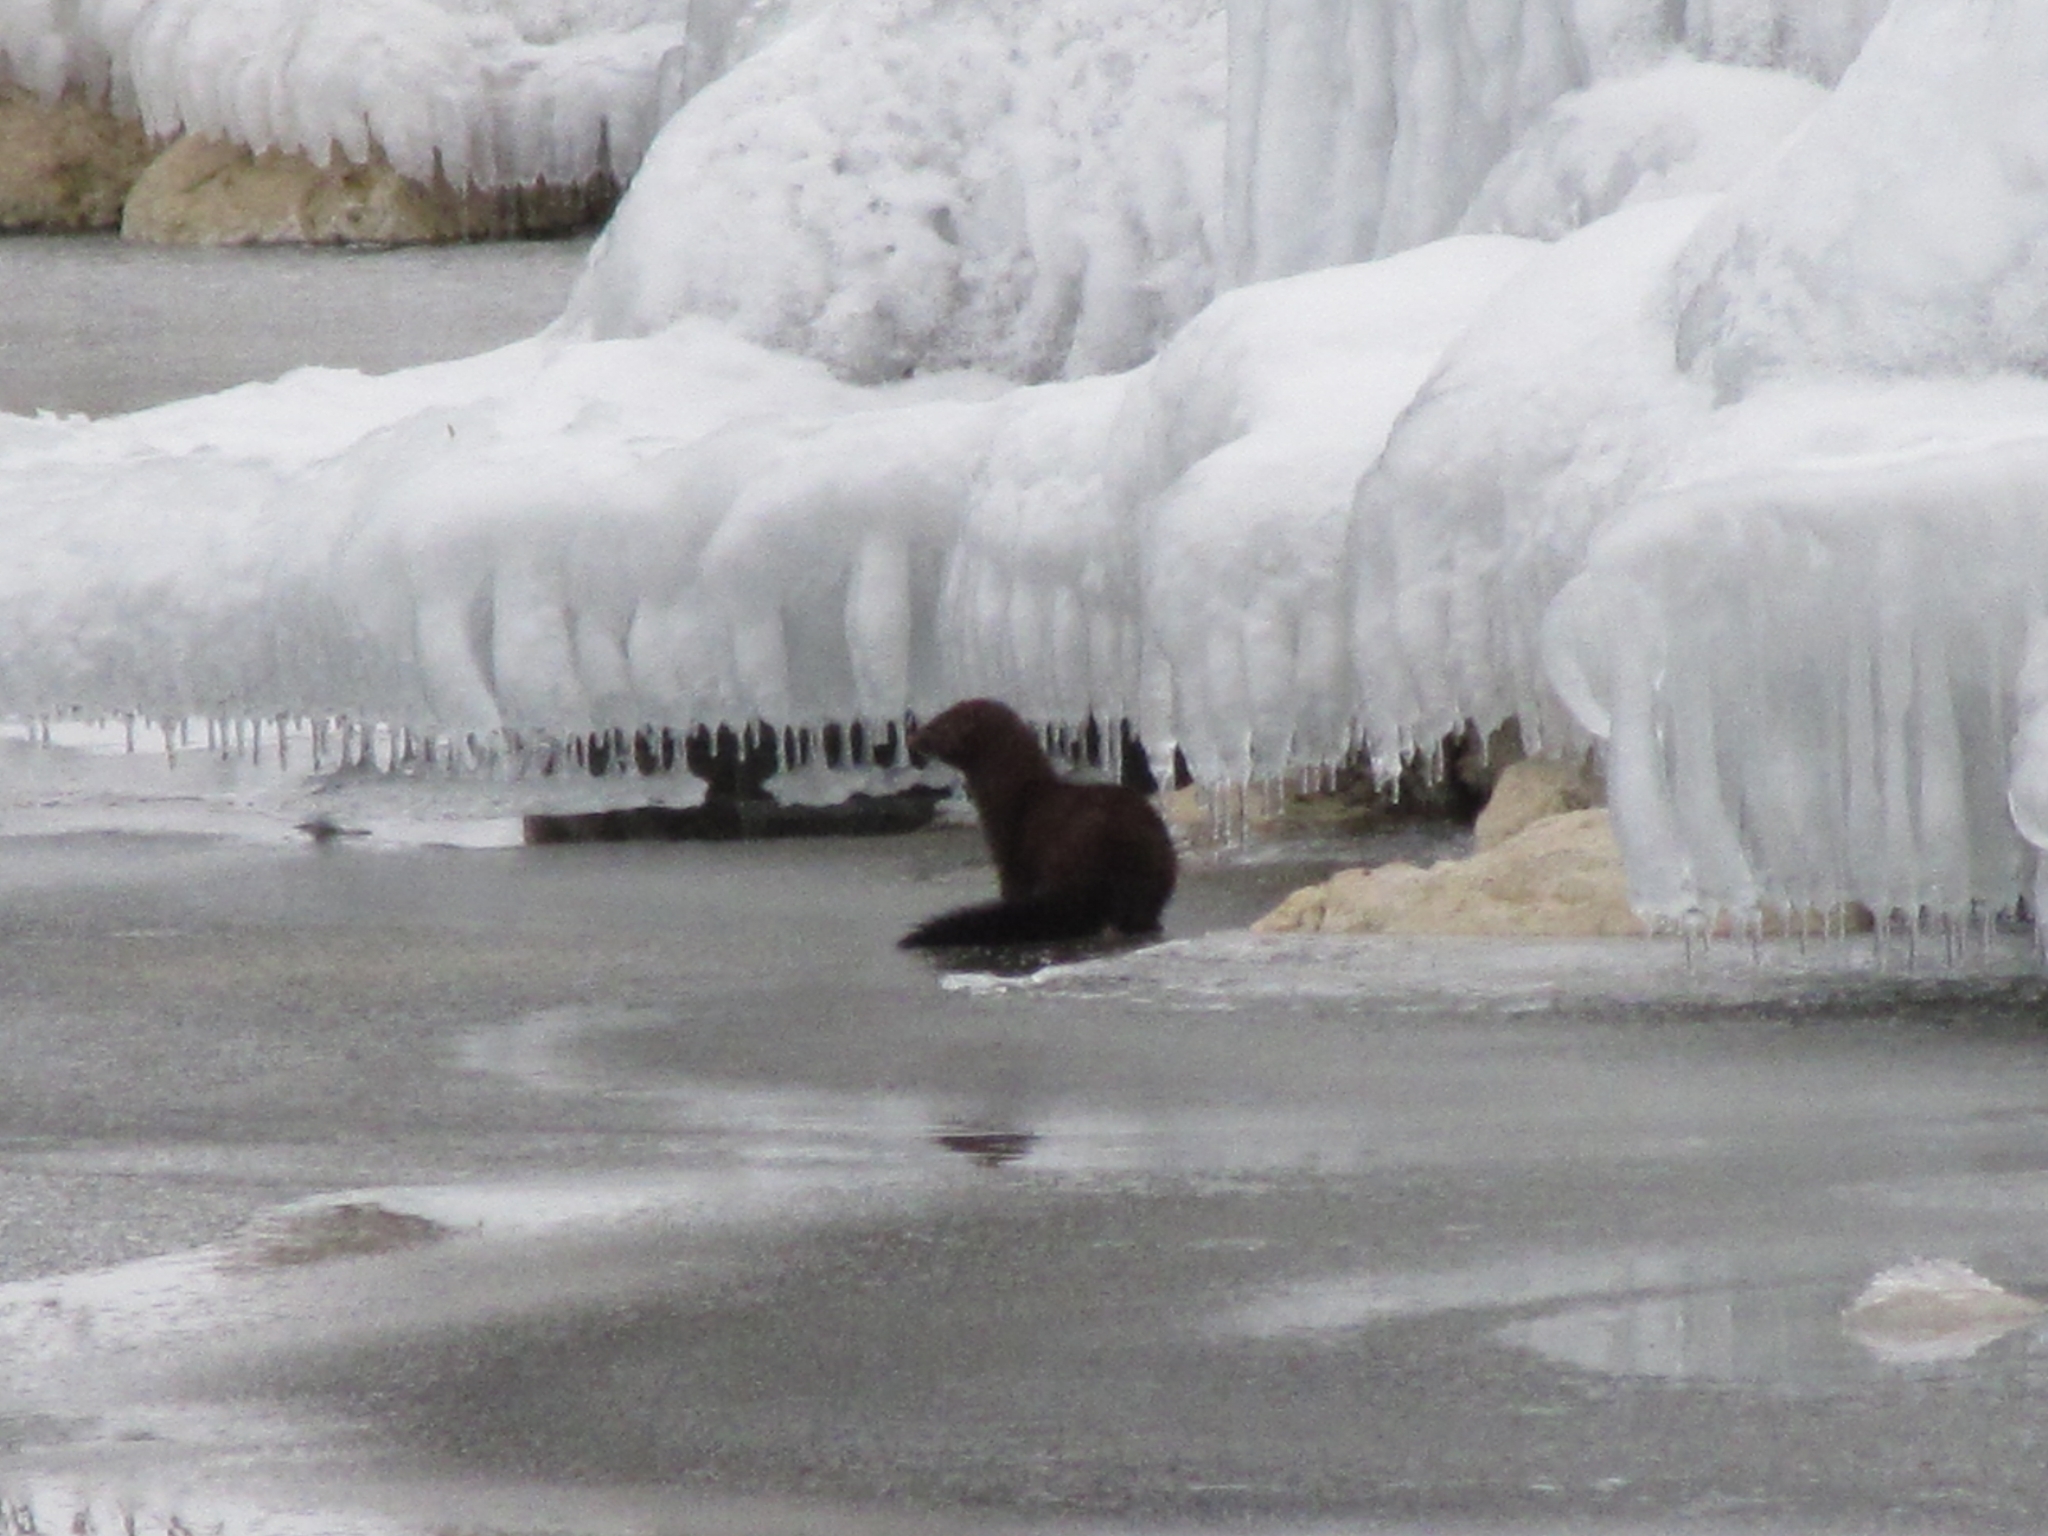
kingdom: Animalia
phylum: Chordata
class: Mammalia
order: Carnivora
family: Mustelidae
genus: Mustela
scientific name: Mustela
